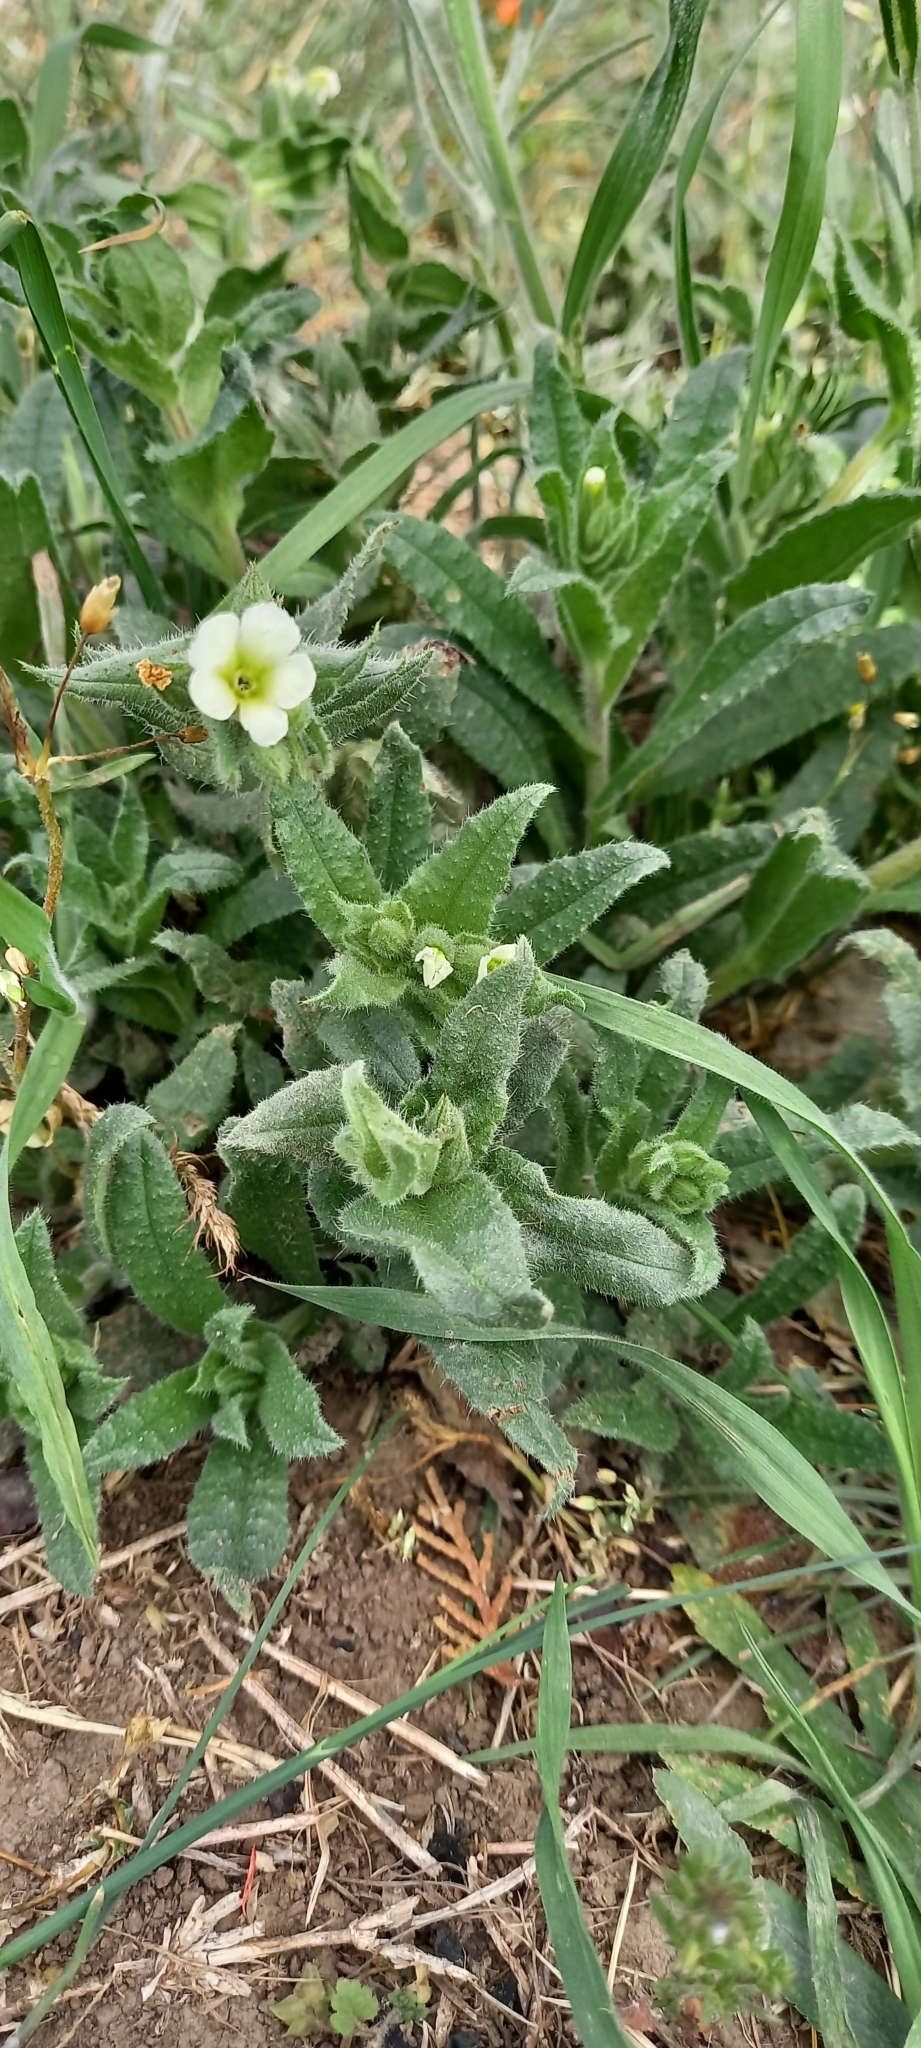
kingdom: Plantae
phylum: Tracheophyta
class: Magnoliopsida
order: Boraginales
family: Boraginaceae
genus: Nonea
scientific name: Nonea lutea
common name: Yellow nonea
